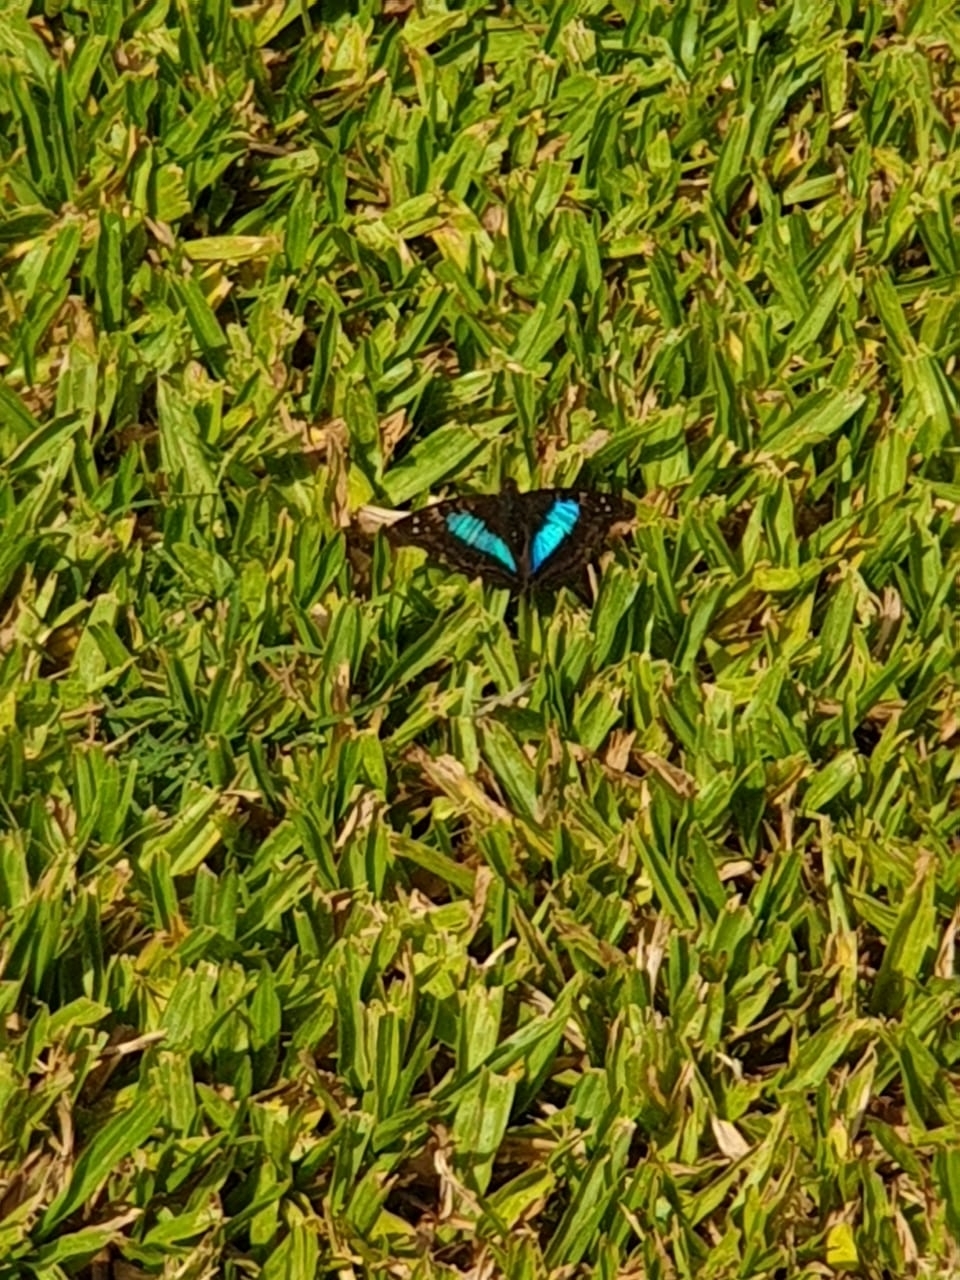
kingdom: Animalia
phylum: Arthropoda
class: Insecta
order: Lepidoptera
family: Nymphalidae
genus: Doxocopa
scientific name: Doxocopa laurentia
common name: Turquoise emperor
